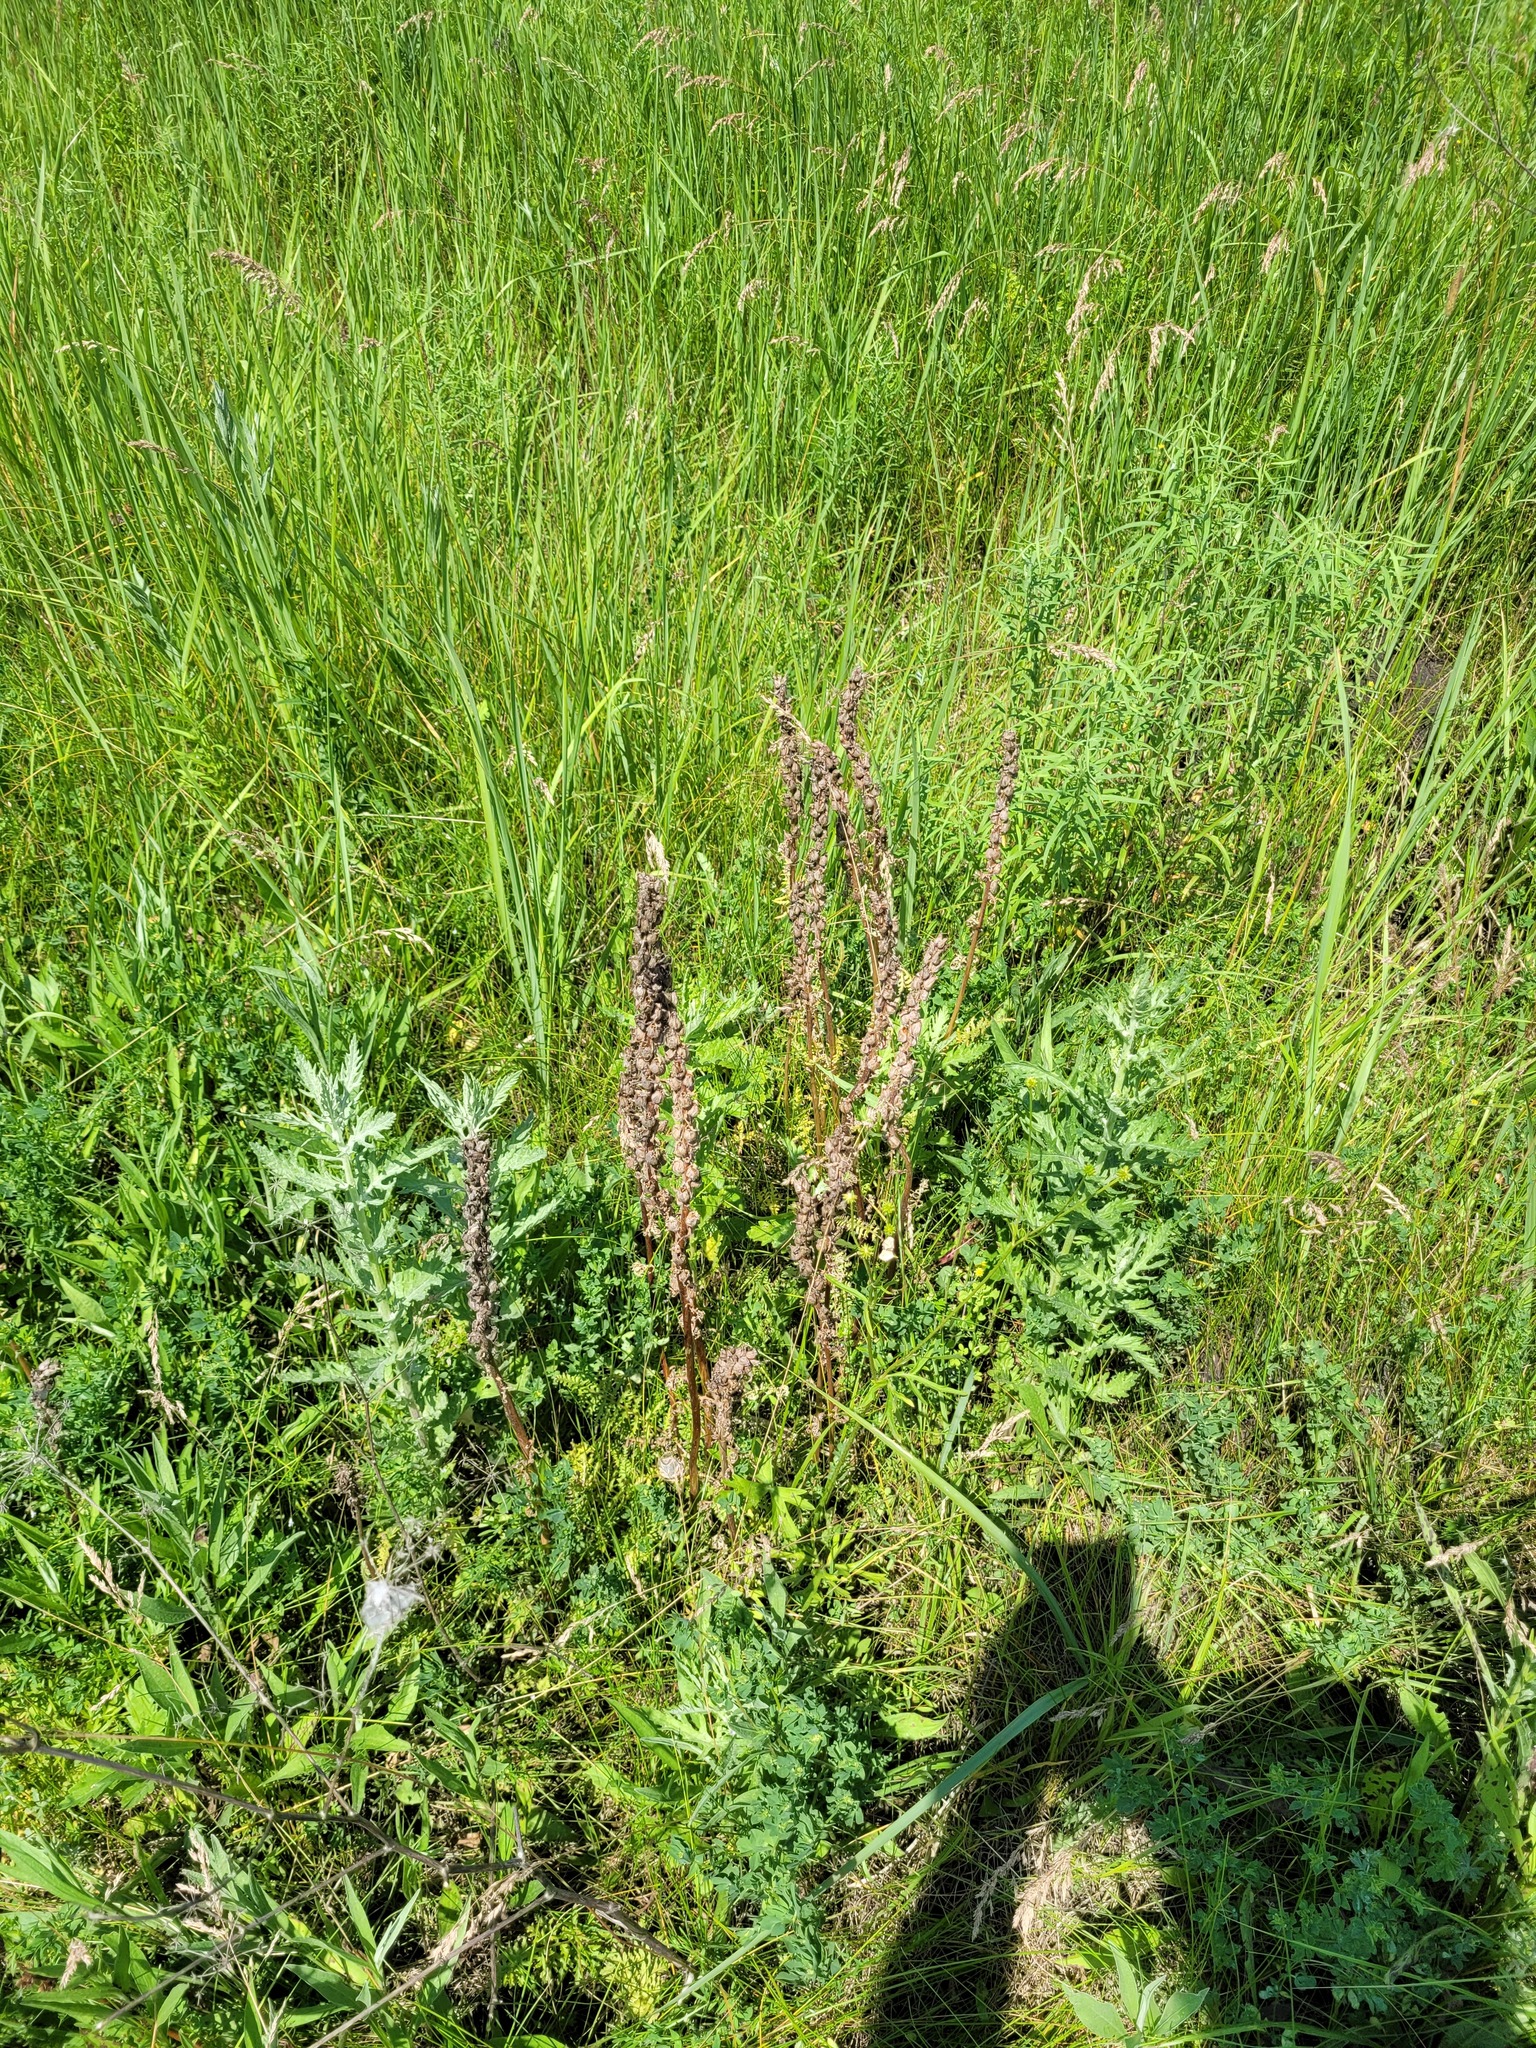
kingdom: Plantae
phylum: Tracheophyta
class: Magnoliopsida
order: Lamiales
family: Orobanchaceae
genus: Pedicularis
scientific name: Pedicularis dasystachys
